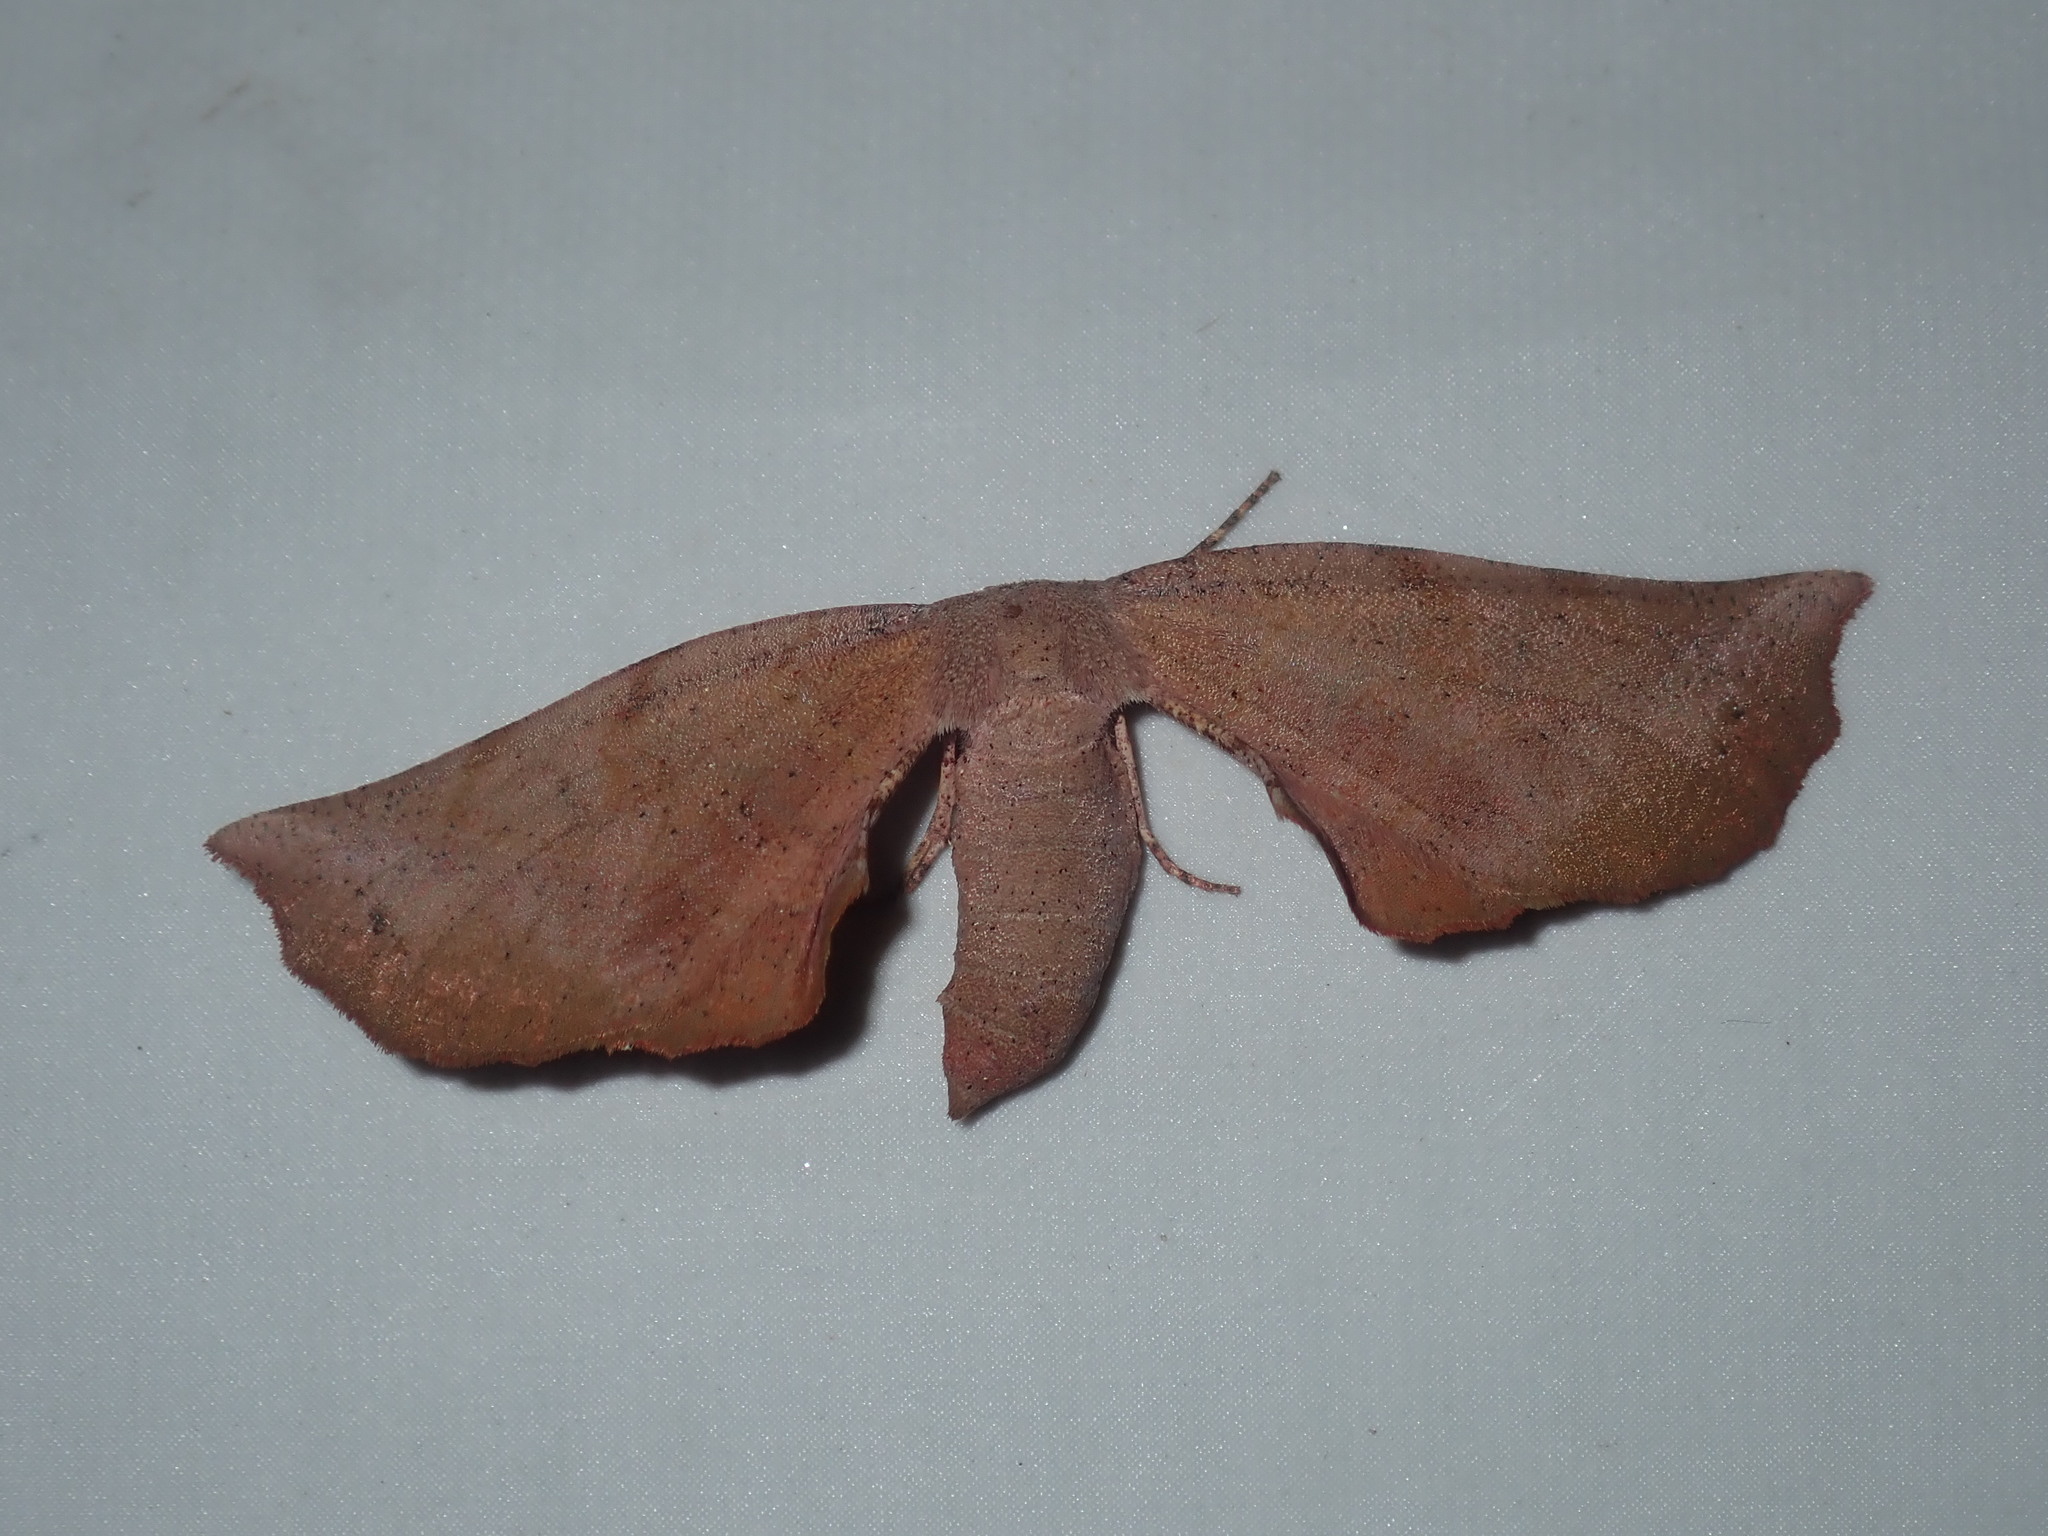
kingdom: Animalia
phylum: Arthropoda
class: Insecta
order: Lepidoptera
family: Geometridae
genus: Parepisparis
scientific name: Parepisparis multicolora
